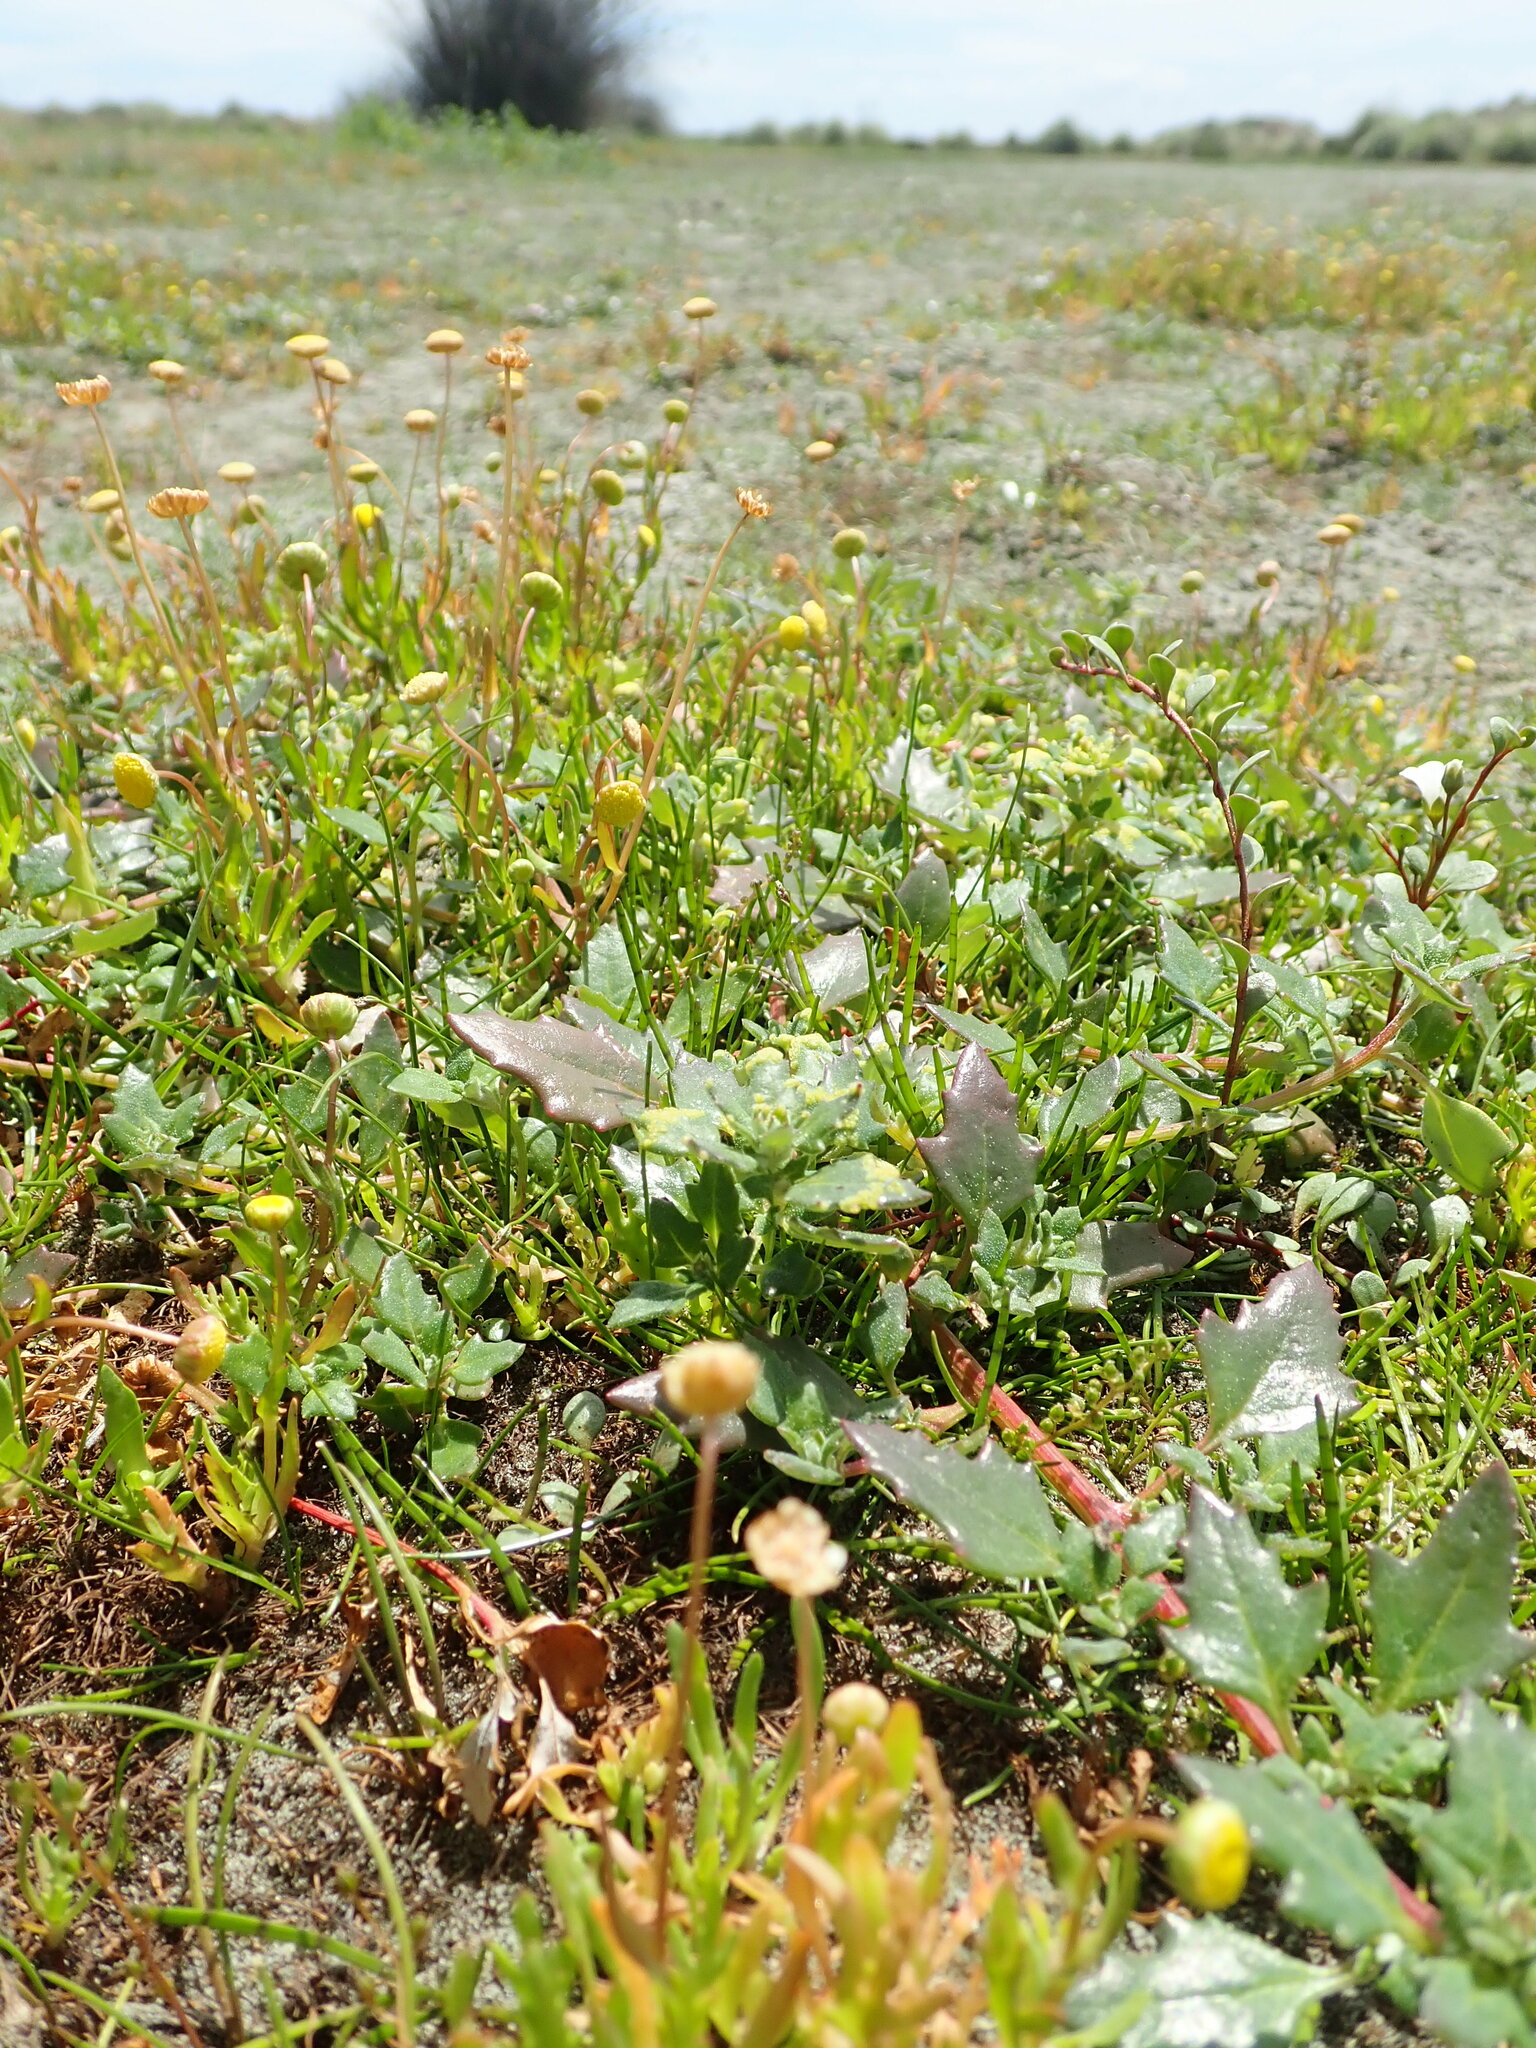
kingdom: Plantae
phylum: Tracheophyta
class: Magnoliopsida
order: Caryophyllales
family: Amaranthaceae
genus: Oxybasis
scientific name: Oxybasis ambigua
